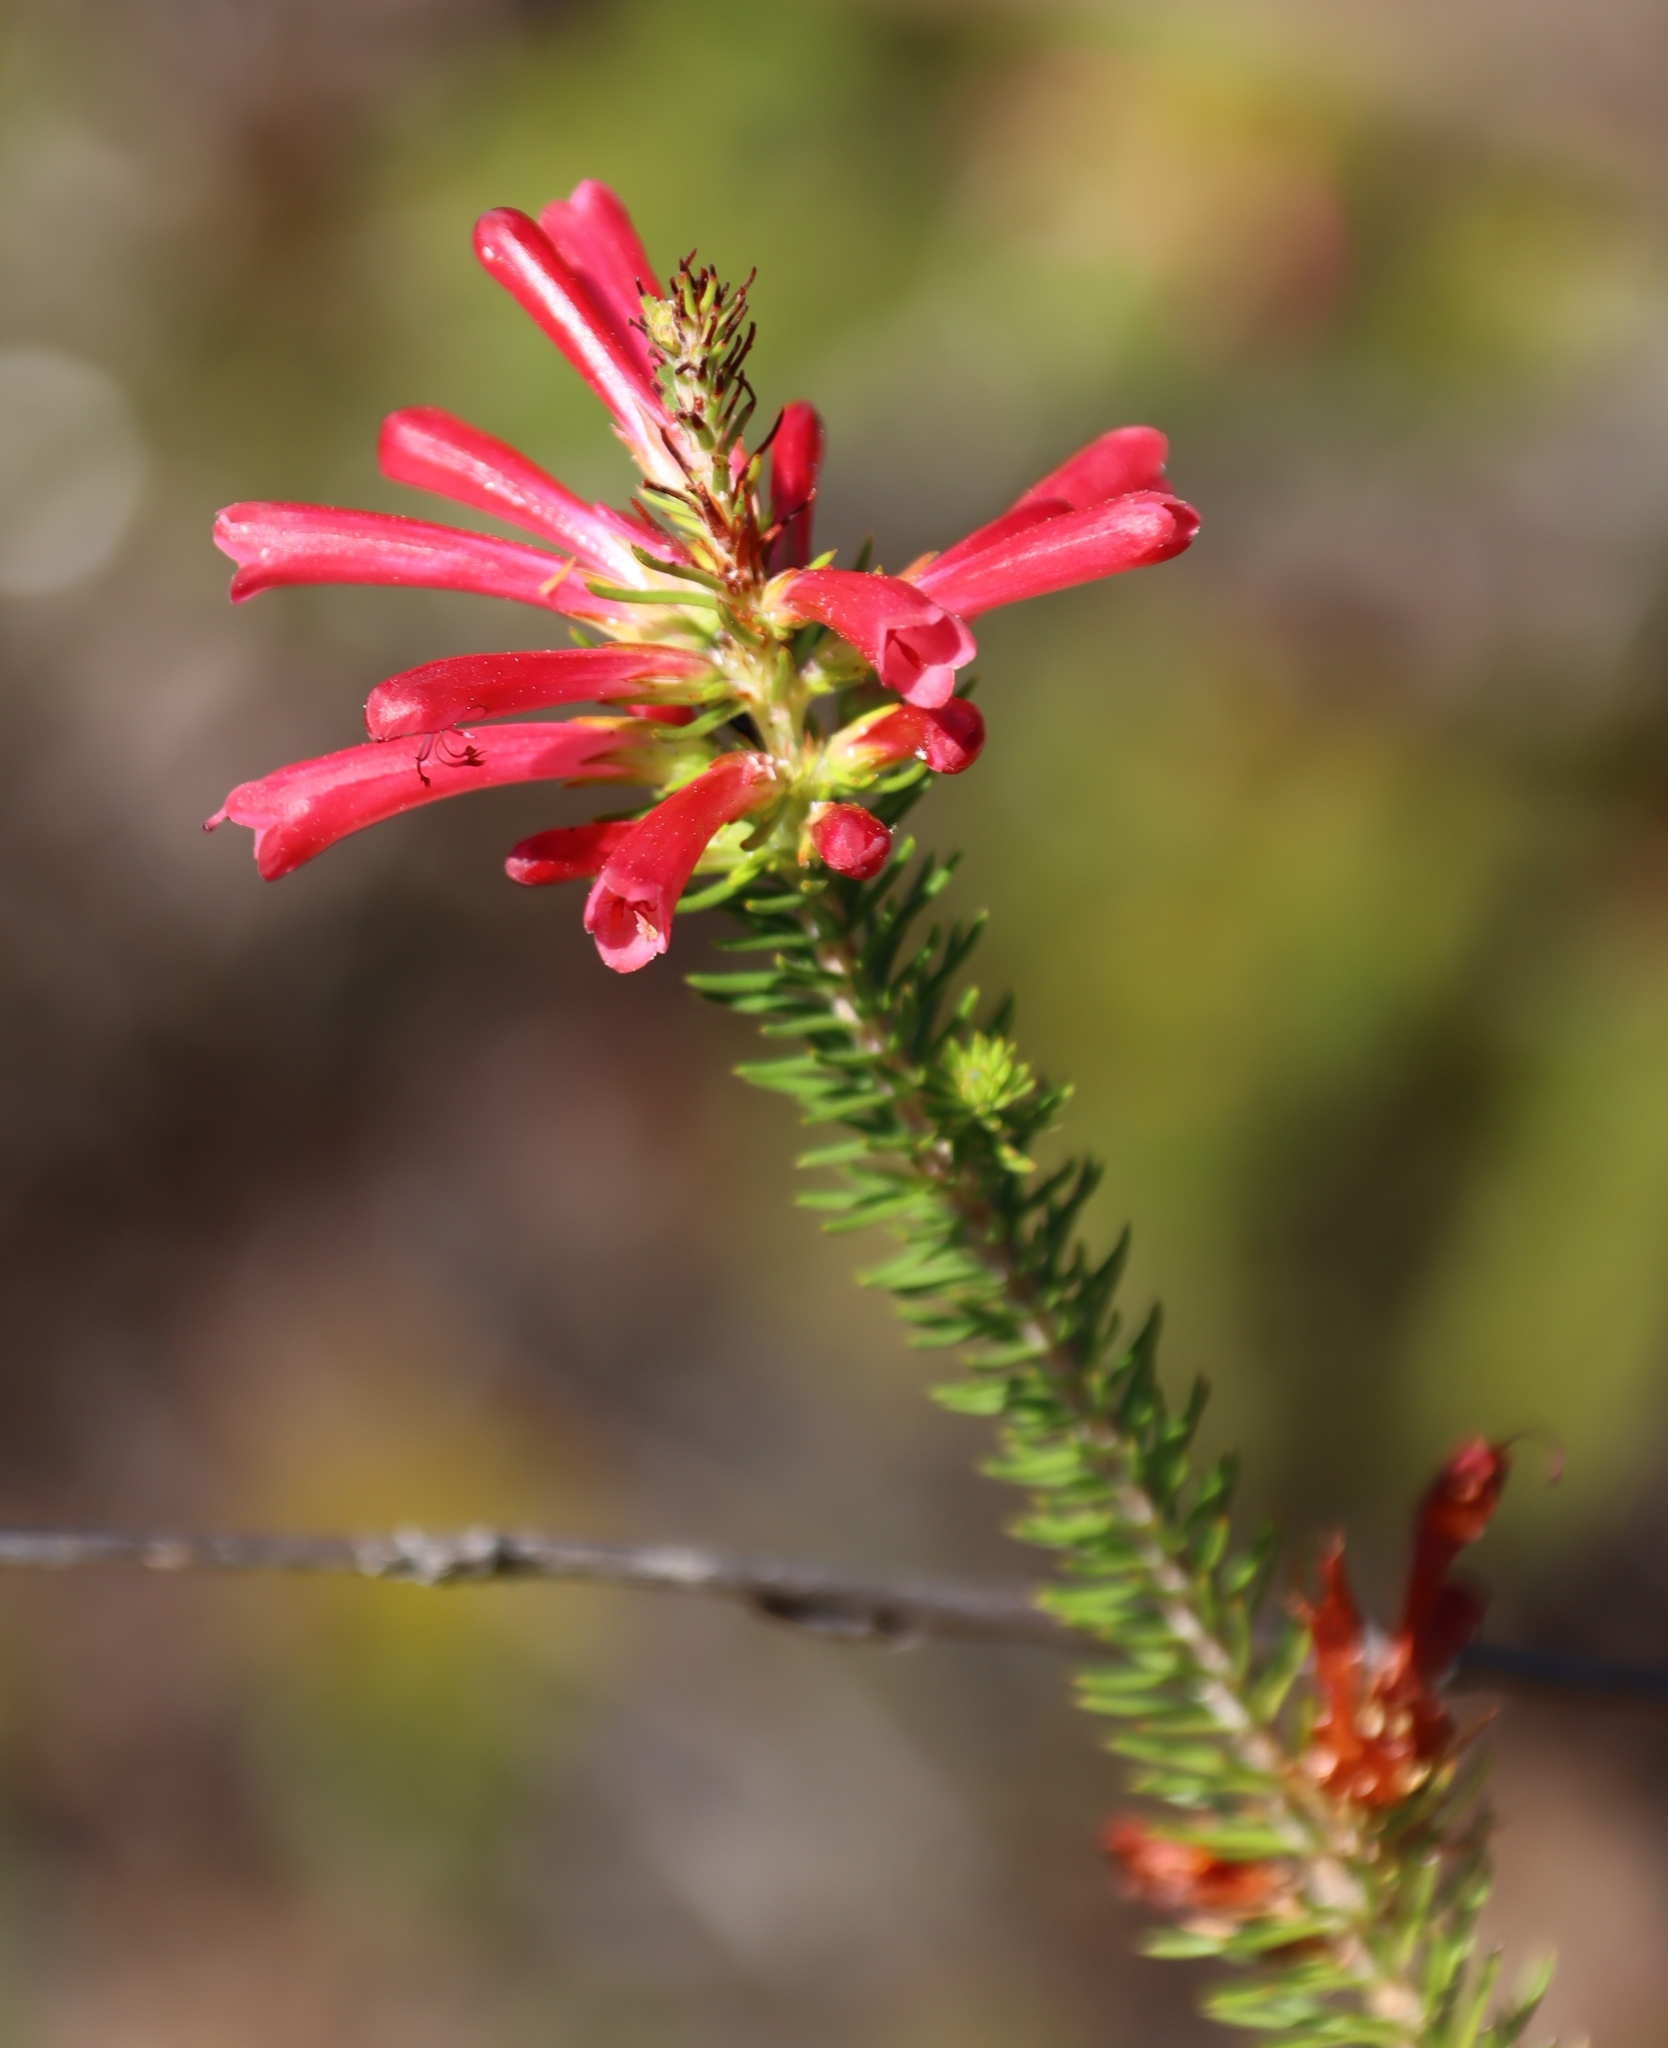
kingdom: Plantae
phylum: Tracheophyta
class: Magnoliopsida
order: Ericales
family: Ericaceae
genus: Erica
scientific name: Erica abietina
